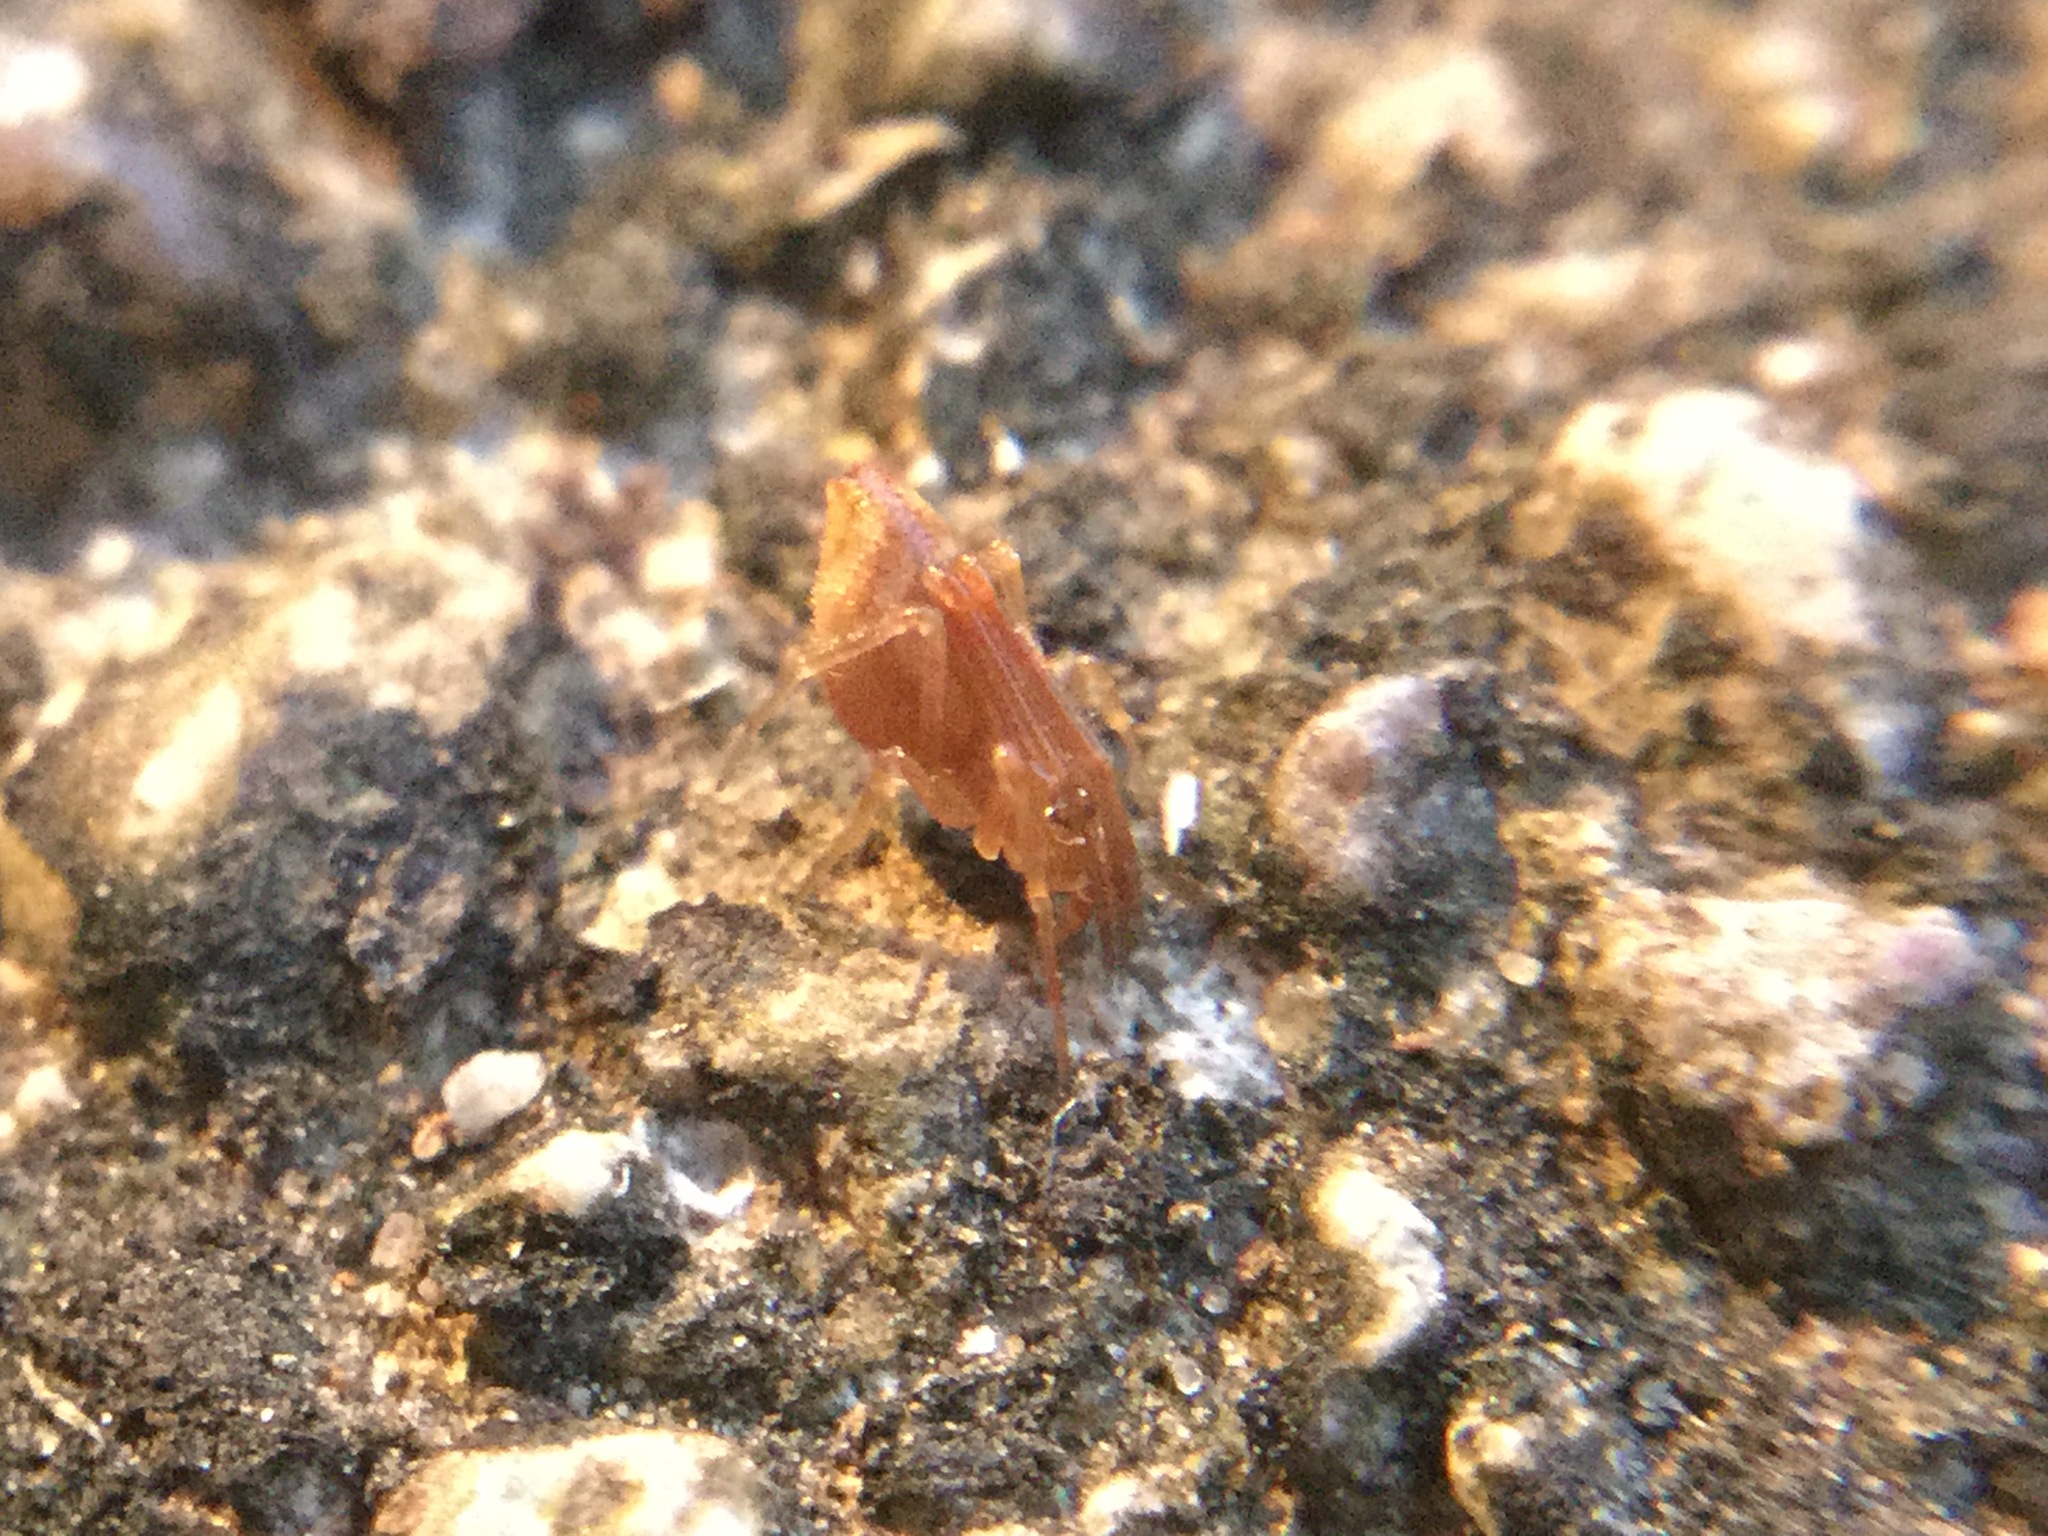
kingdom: Animalia
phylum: Arthropoda
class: Arachnida
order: Araneae
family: Theridiidae
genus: Neospintharus
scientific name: Neospintharus trigonum
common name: Horned parasitic cobweaver
